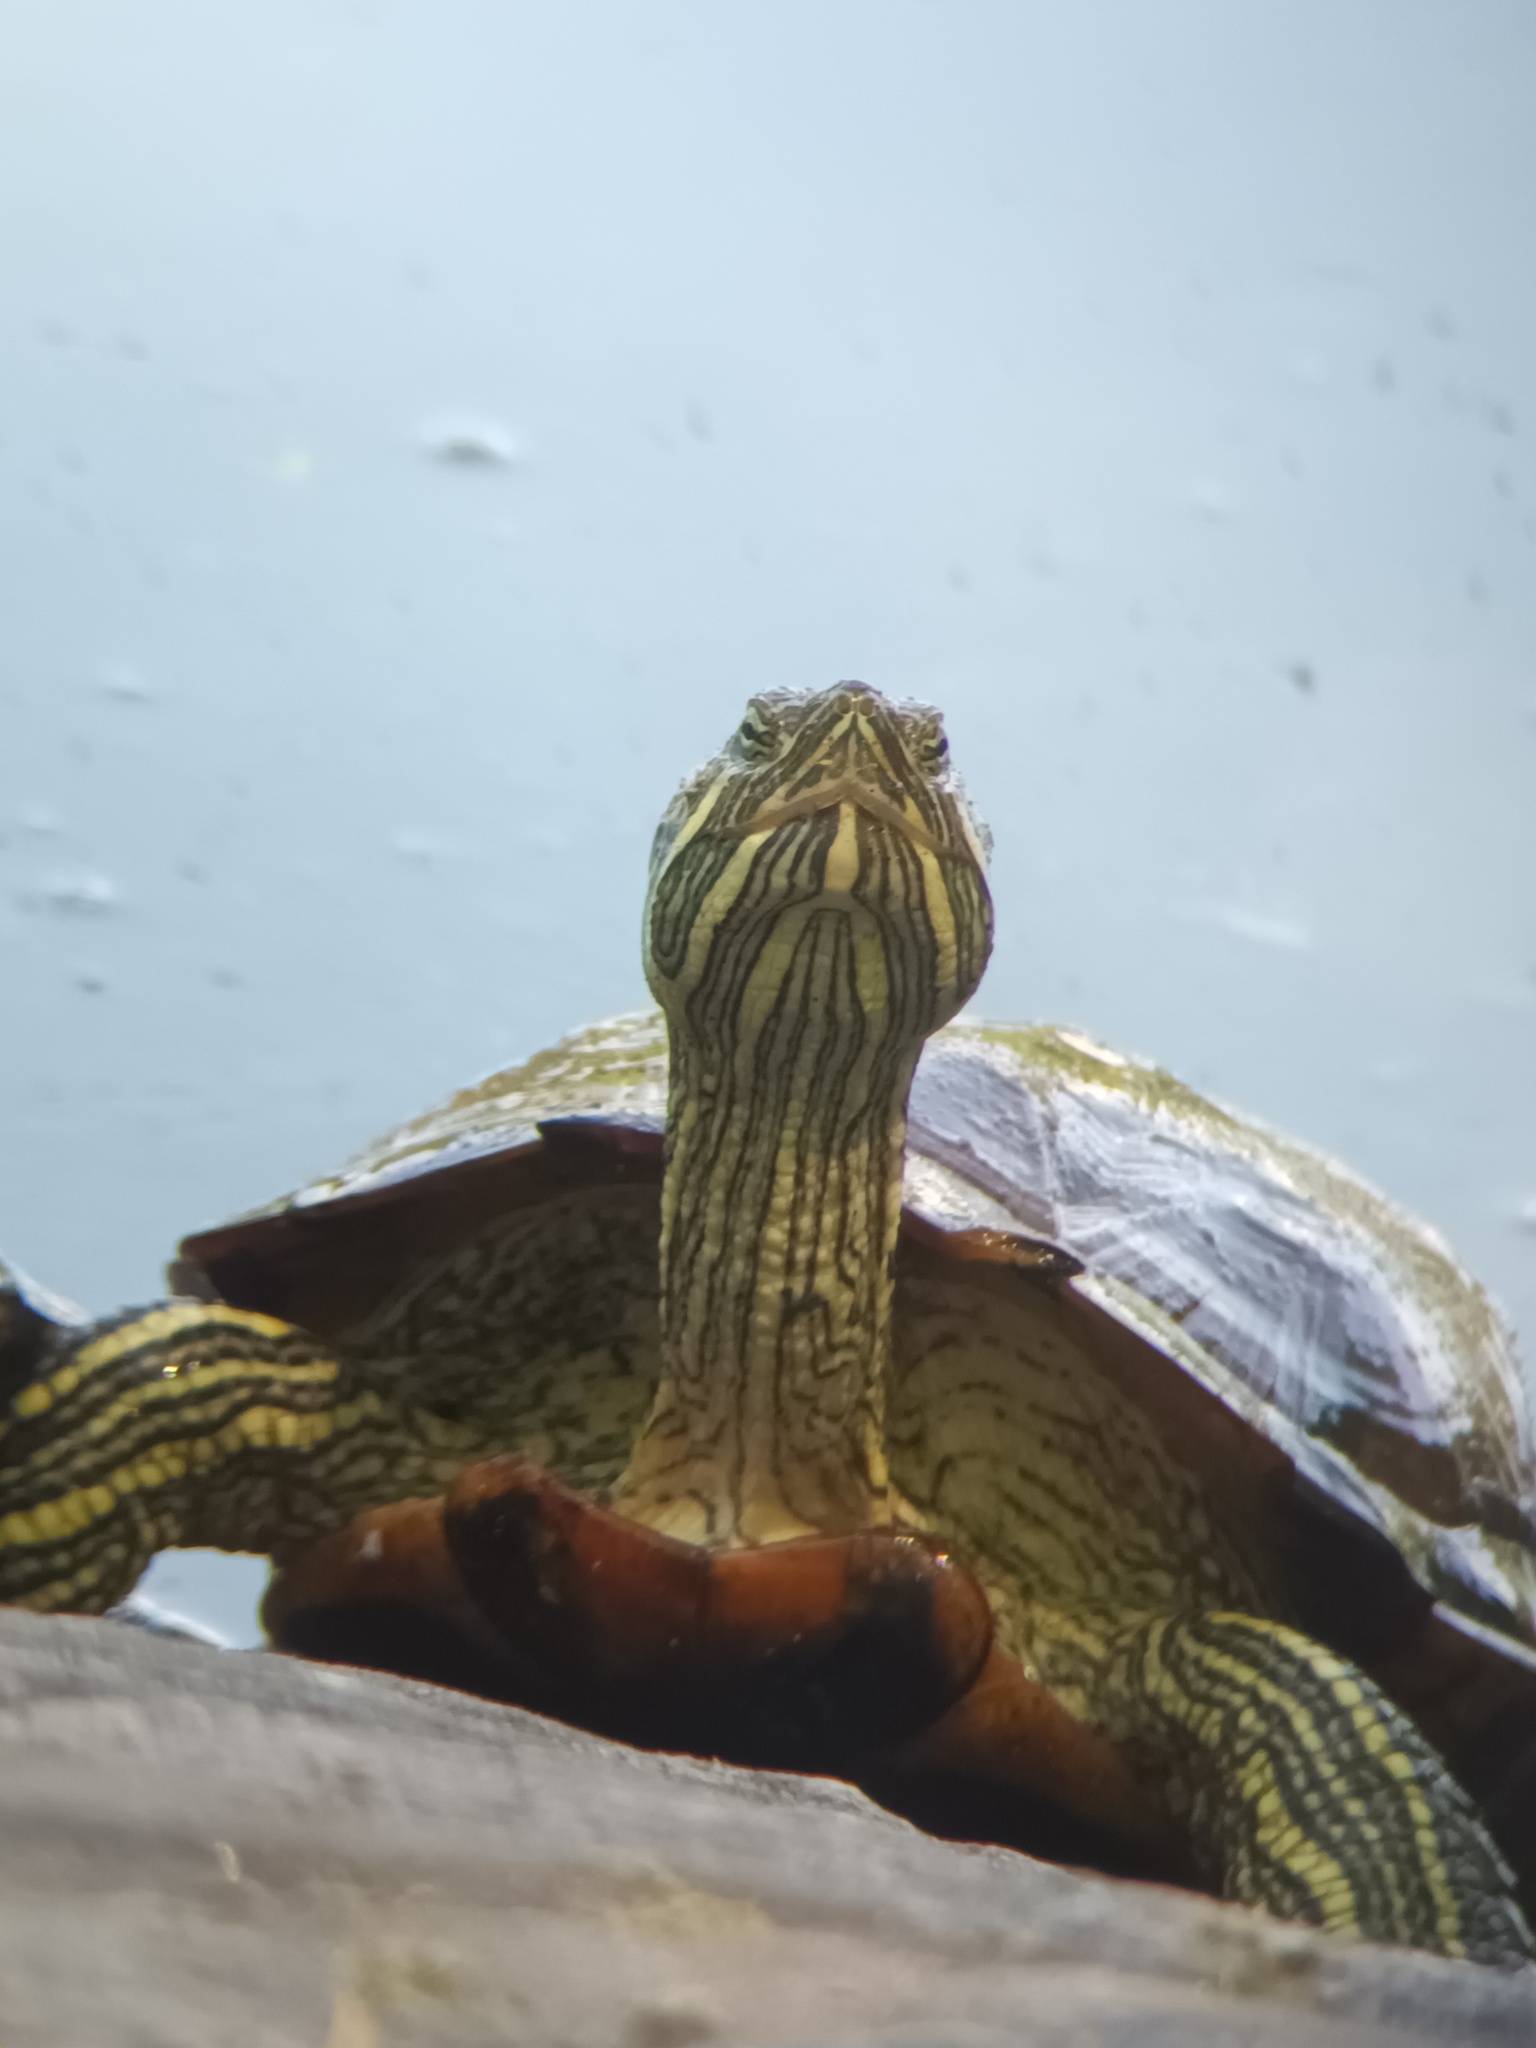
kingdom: Animalia
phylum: Chordata
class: Testudines
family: Emydidae
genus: Trachemys
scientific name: Trachemys scripta
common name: Slider
